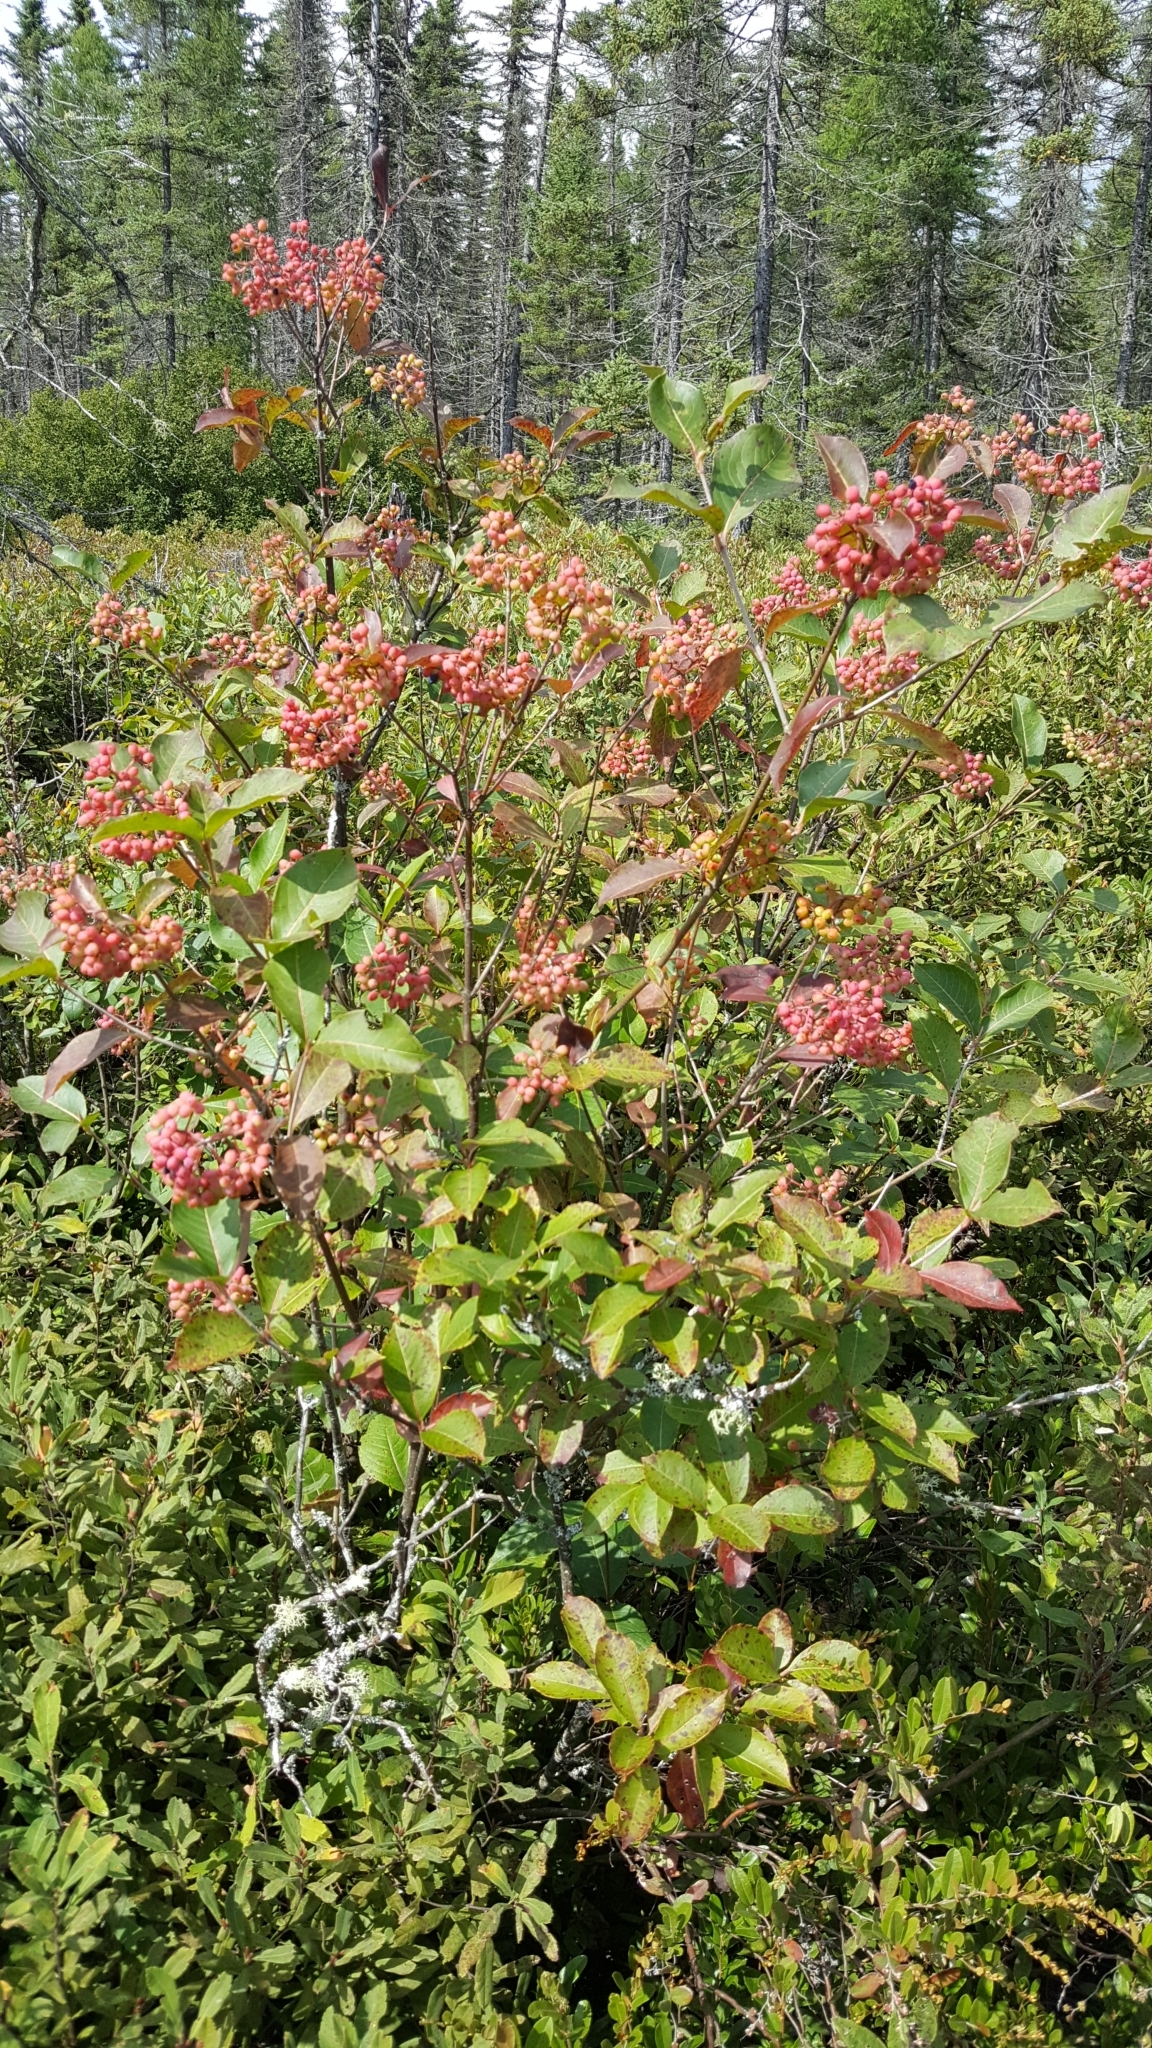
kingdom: Plantae
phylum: Tracheophyta
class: Magnoliopsida
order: Dipsacales
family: Viburnaceae
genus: Viburnum
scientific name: Viburnum cassinoides
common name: Swamp haw
